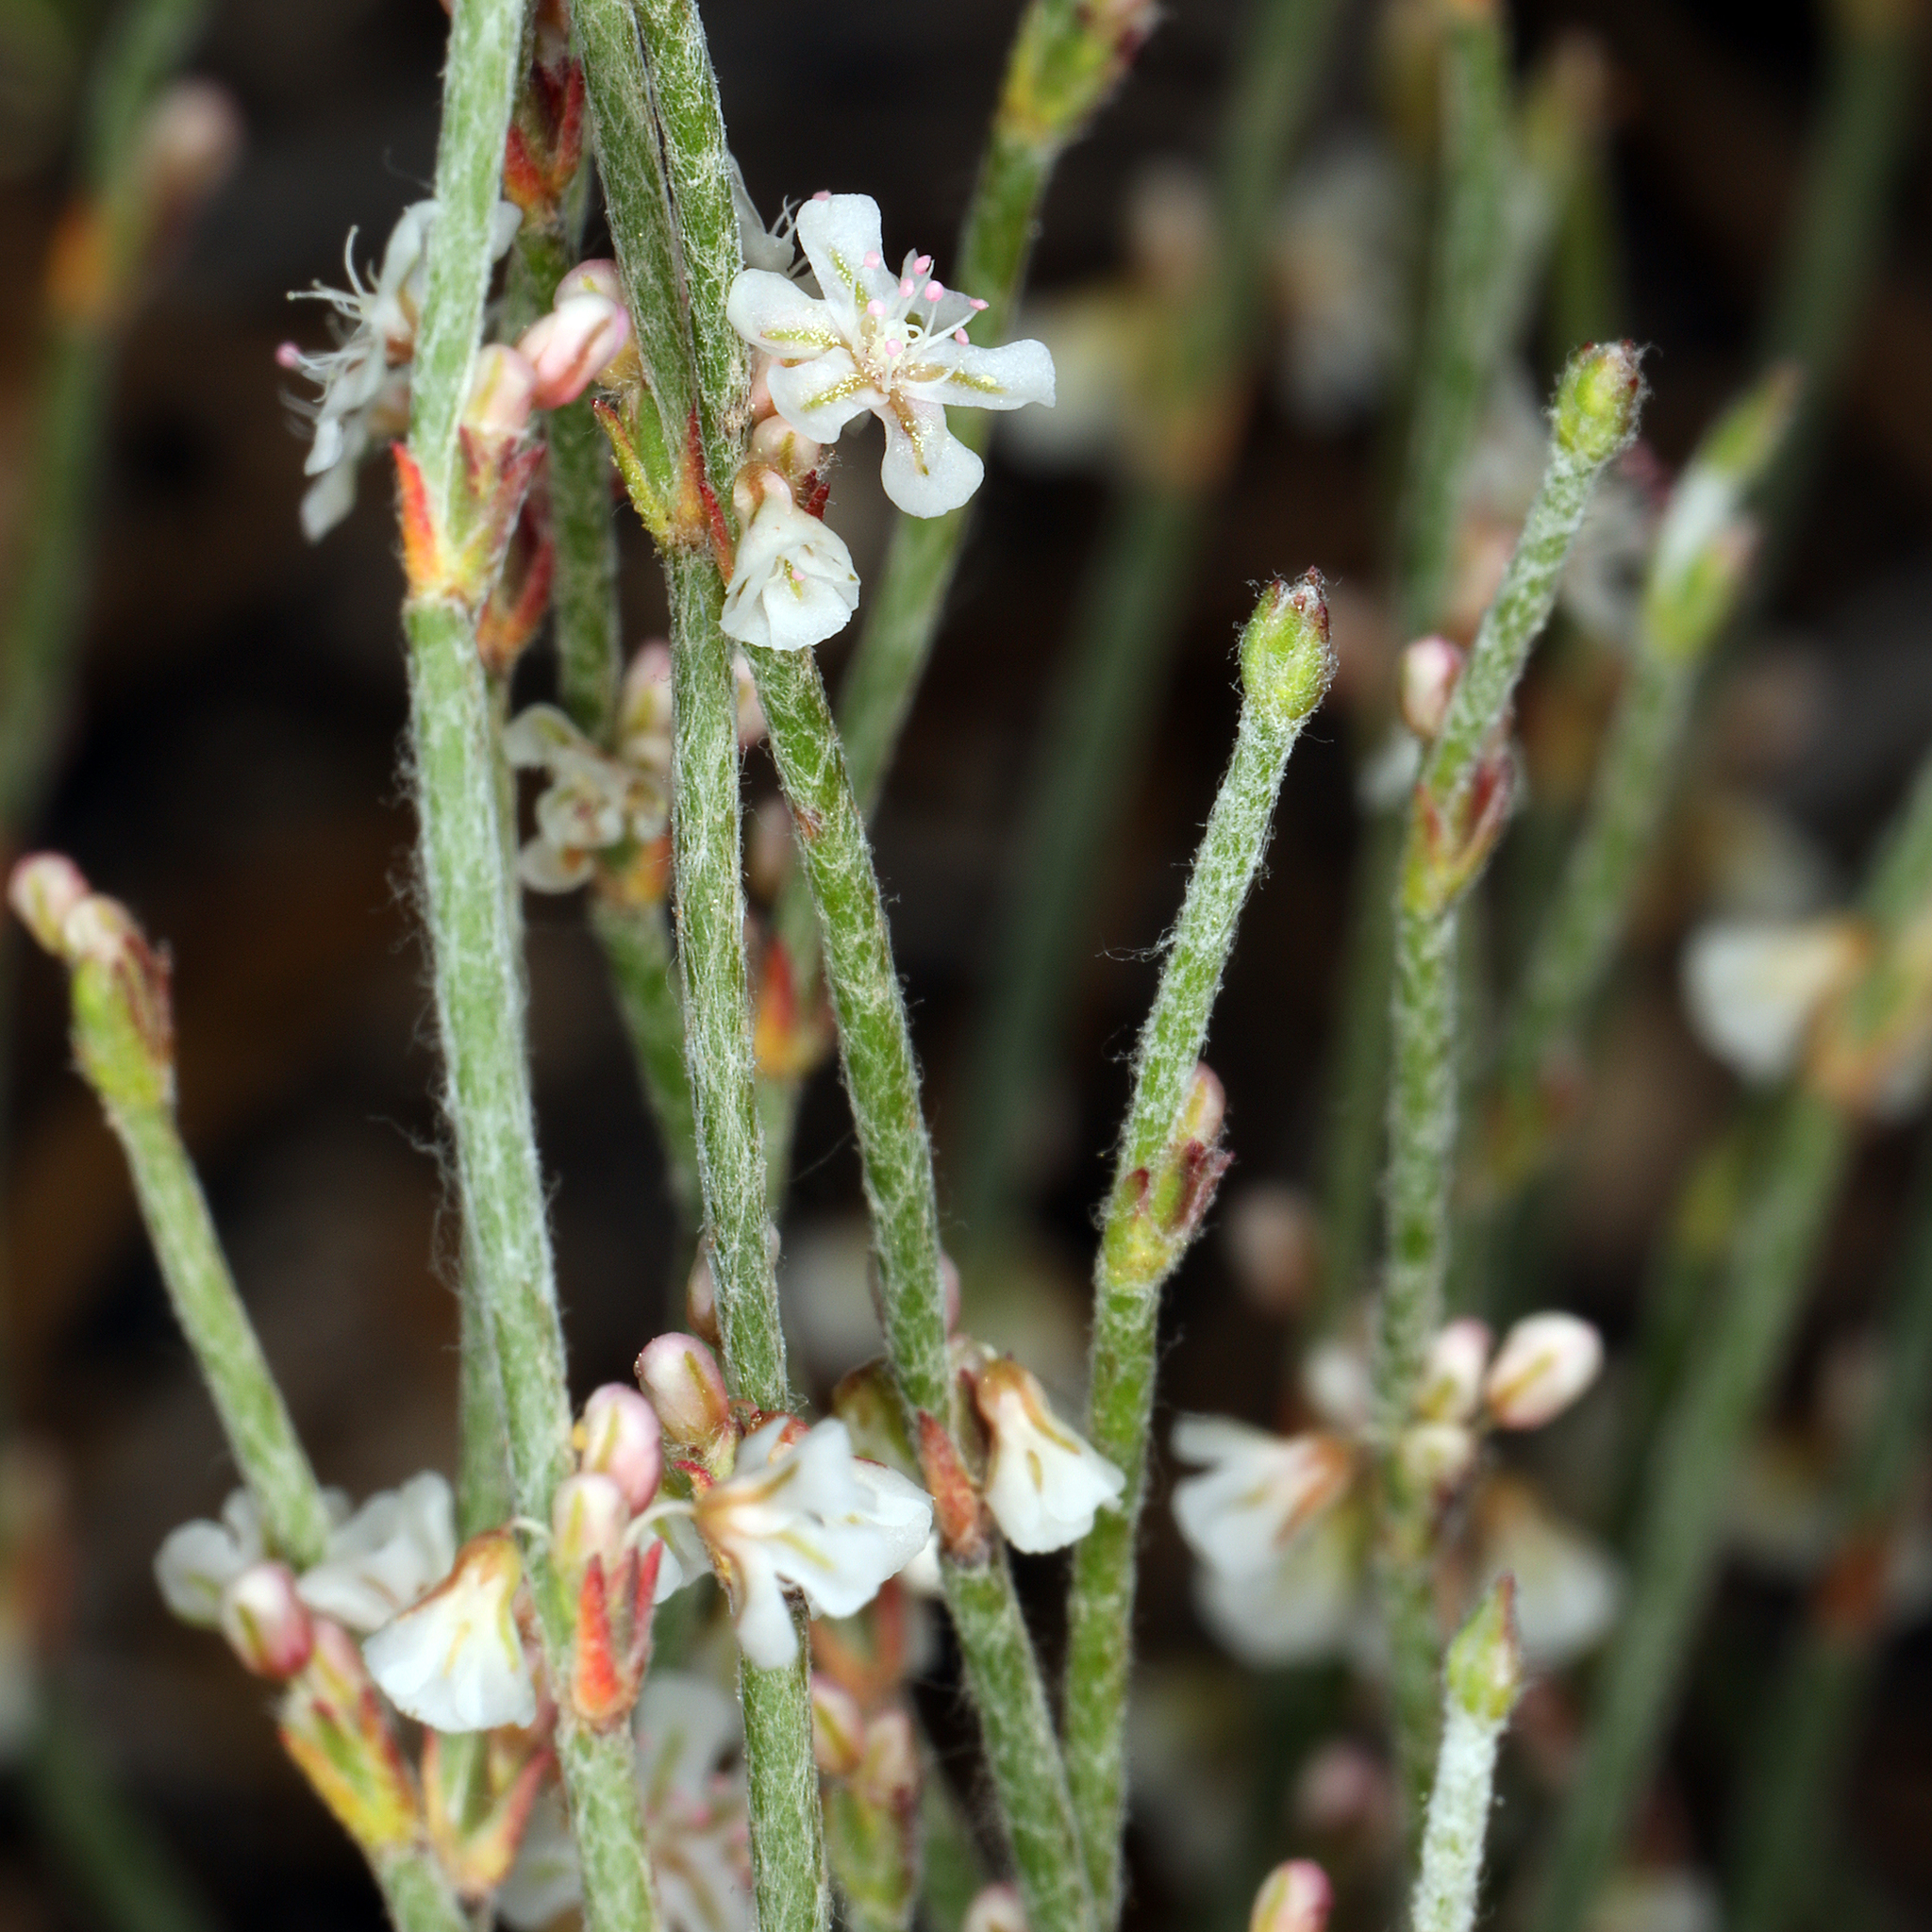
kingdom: Plantae
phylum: Tracheophyta
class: Magnoliopsida
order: Caryophyllales
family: Polygonaceae
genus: Eriogonum
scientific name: Eriogonum palmerianum
